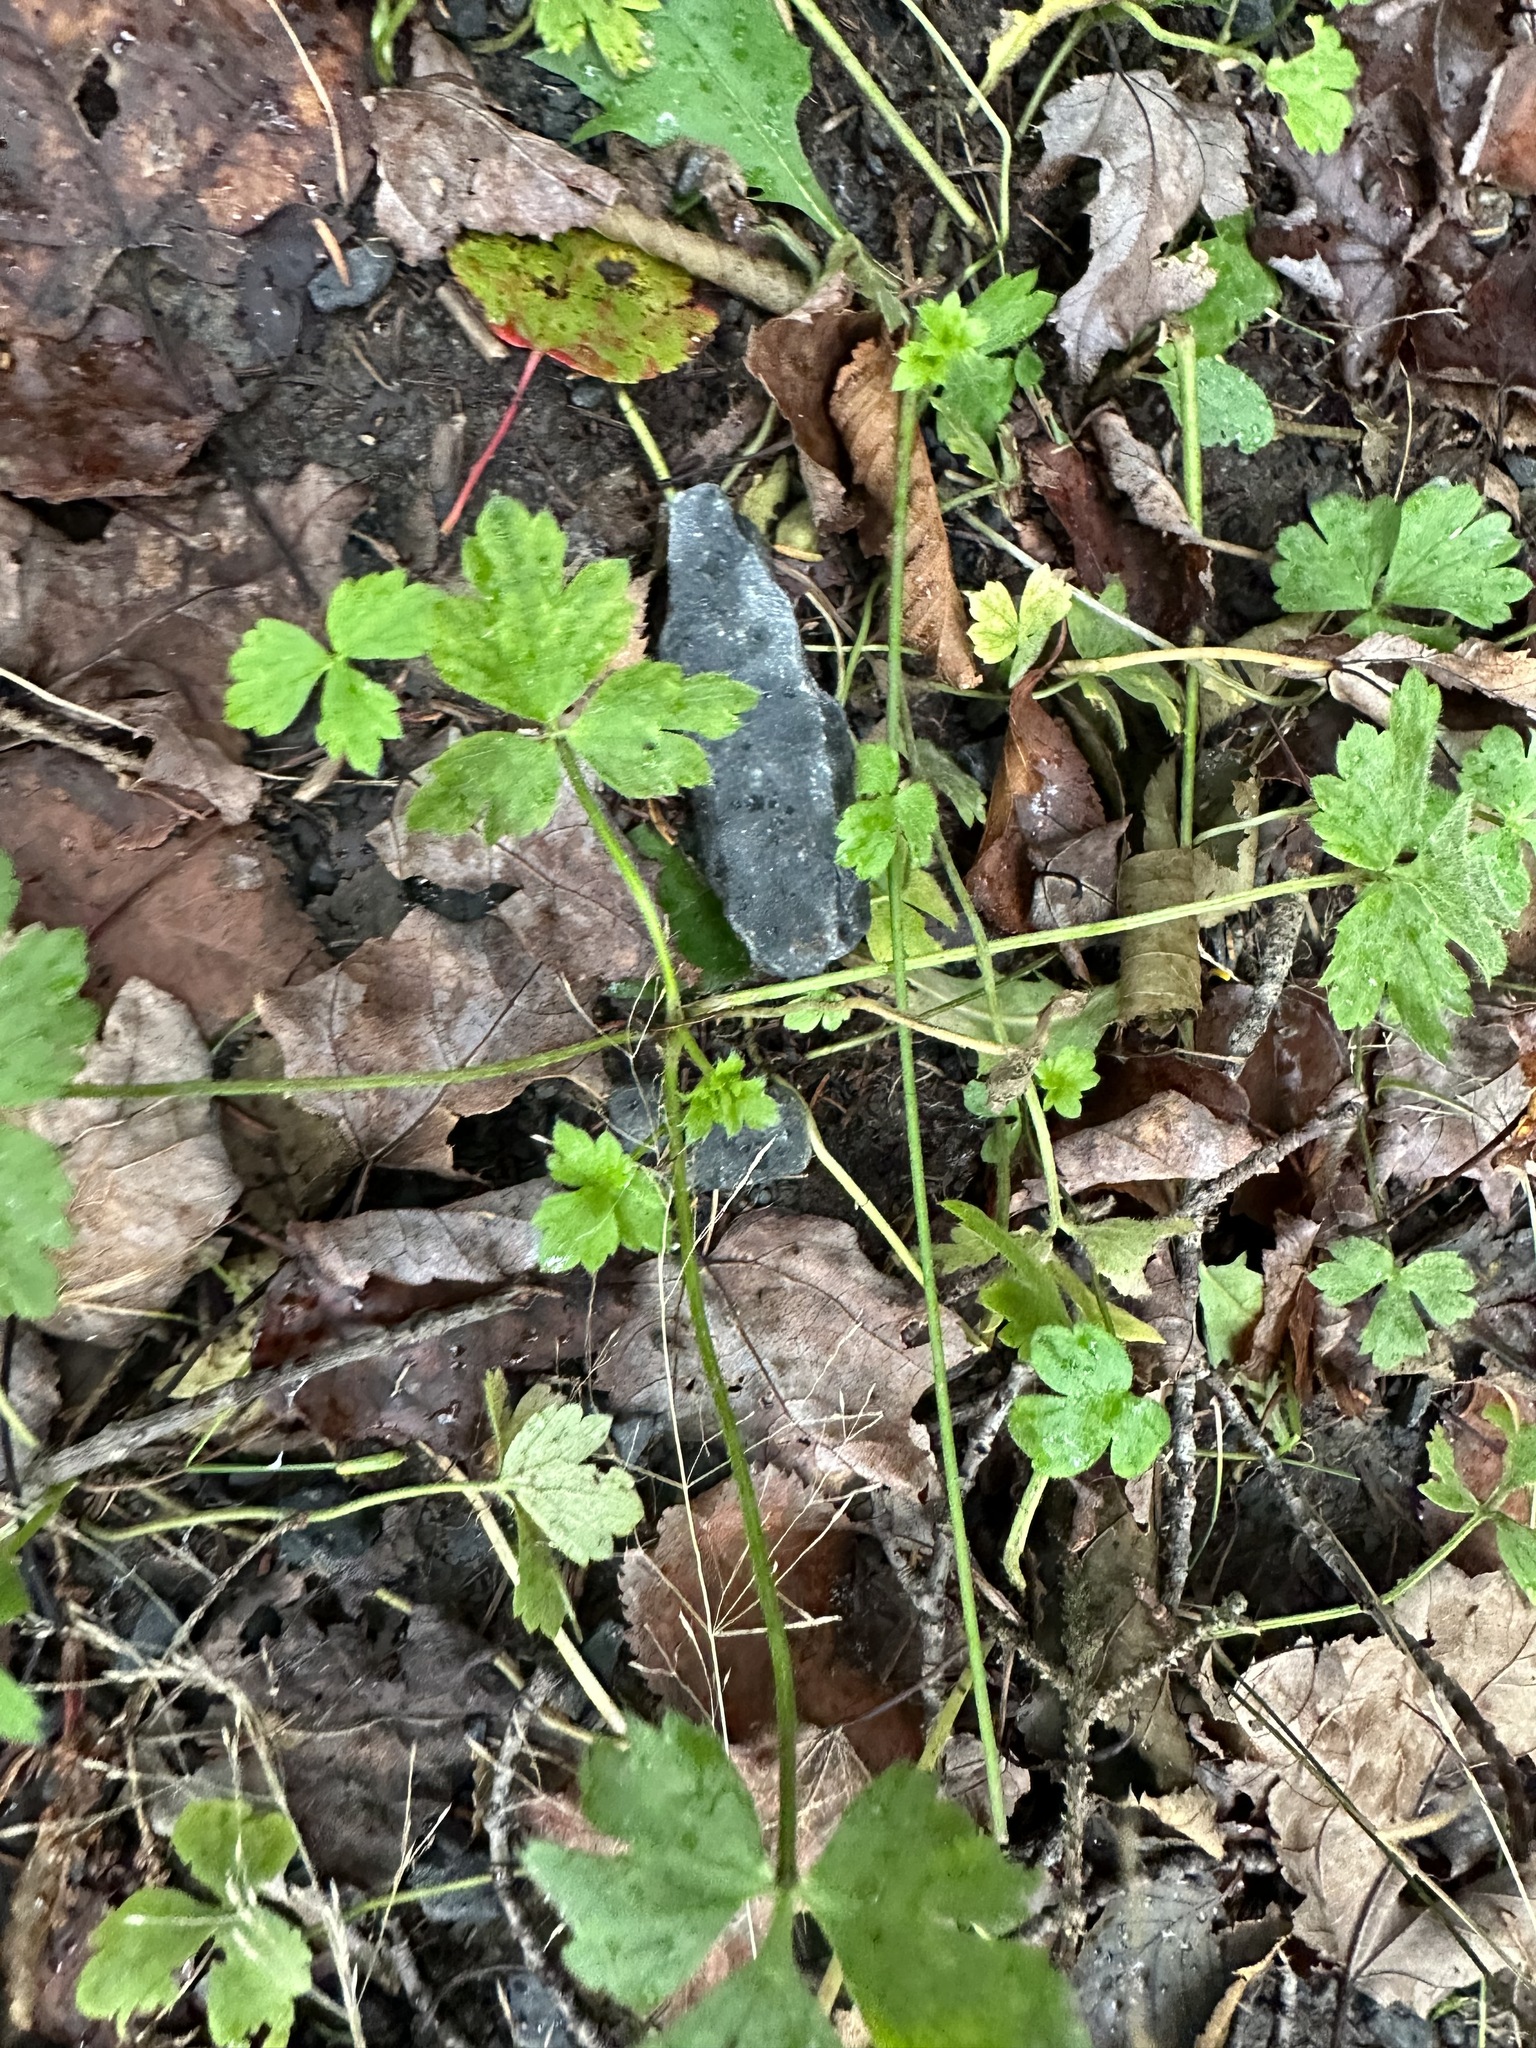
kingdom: Plantae
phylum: Tracheophyta
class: Magnoliopsida
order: Ranunculales
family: Ranunculaceae
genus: Ranunculus
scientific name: Ranunculus repens
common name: Creeping buttercup
